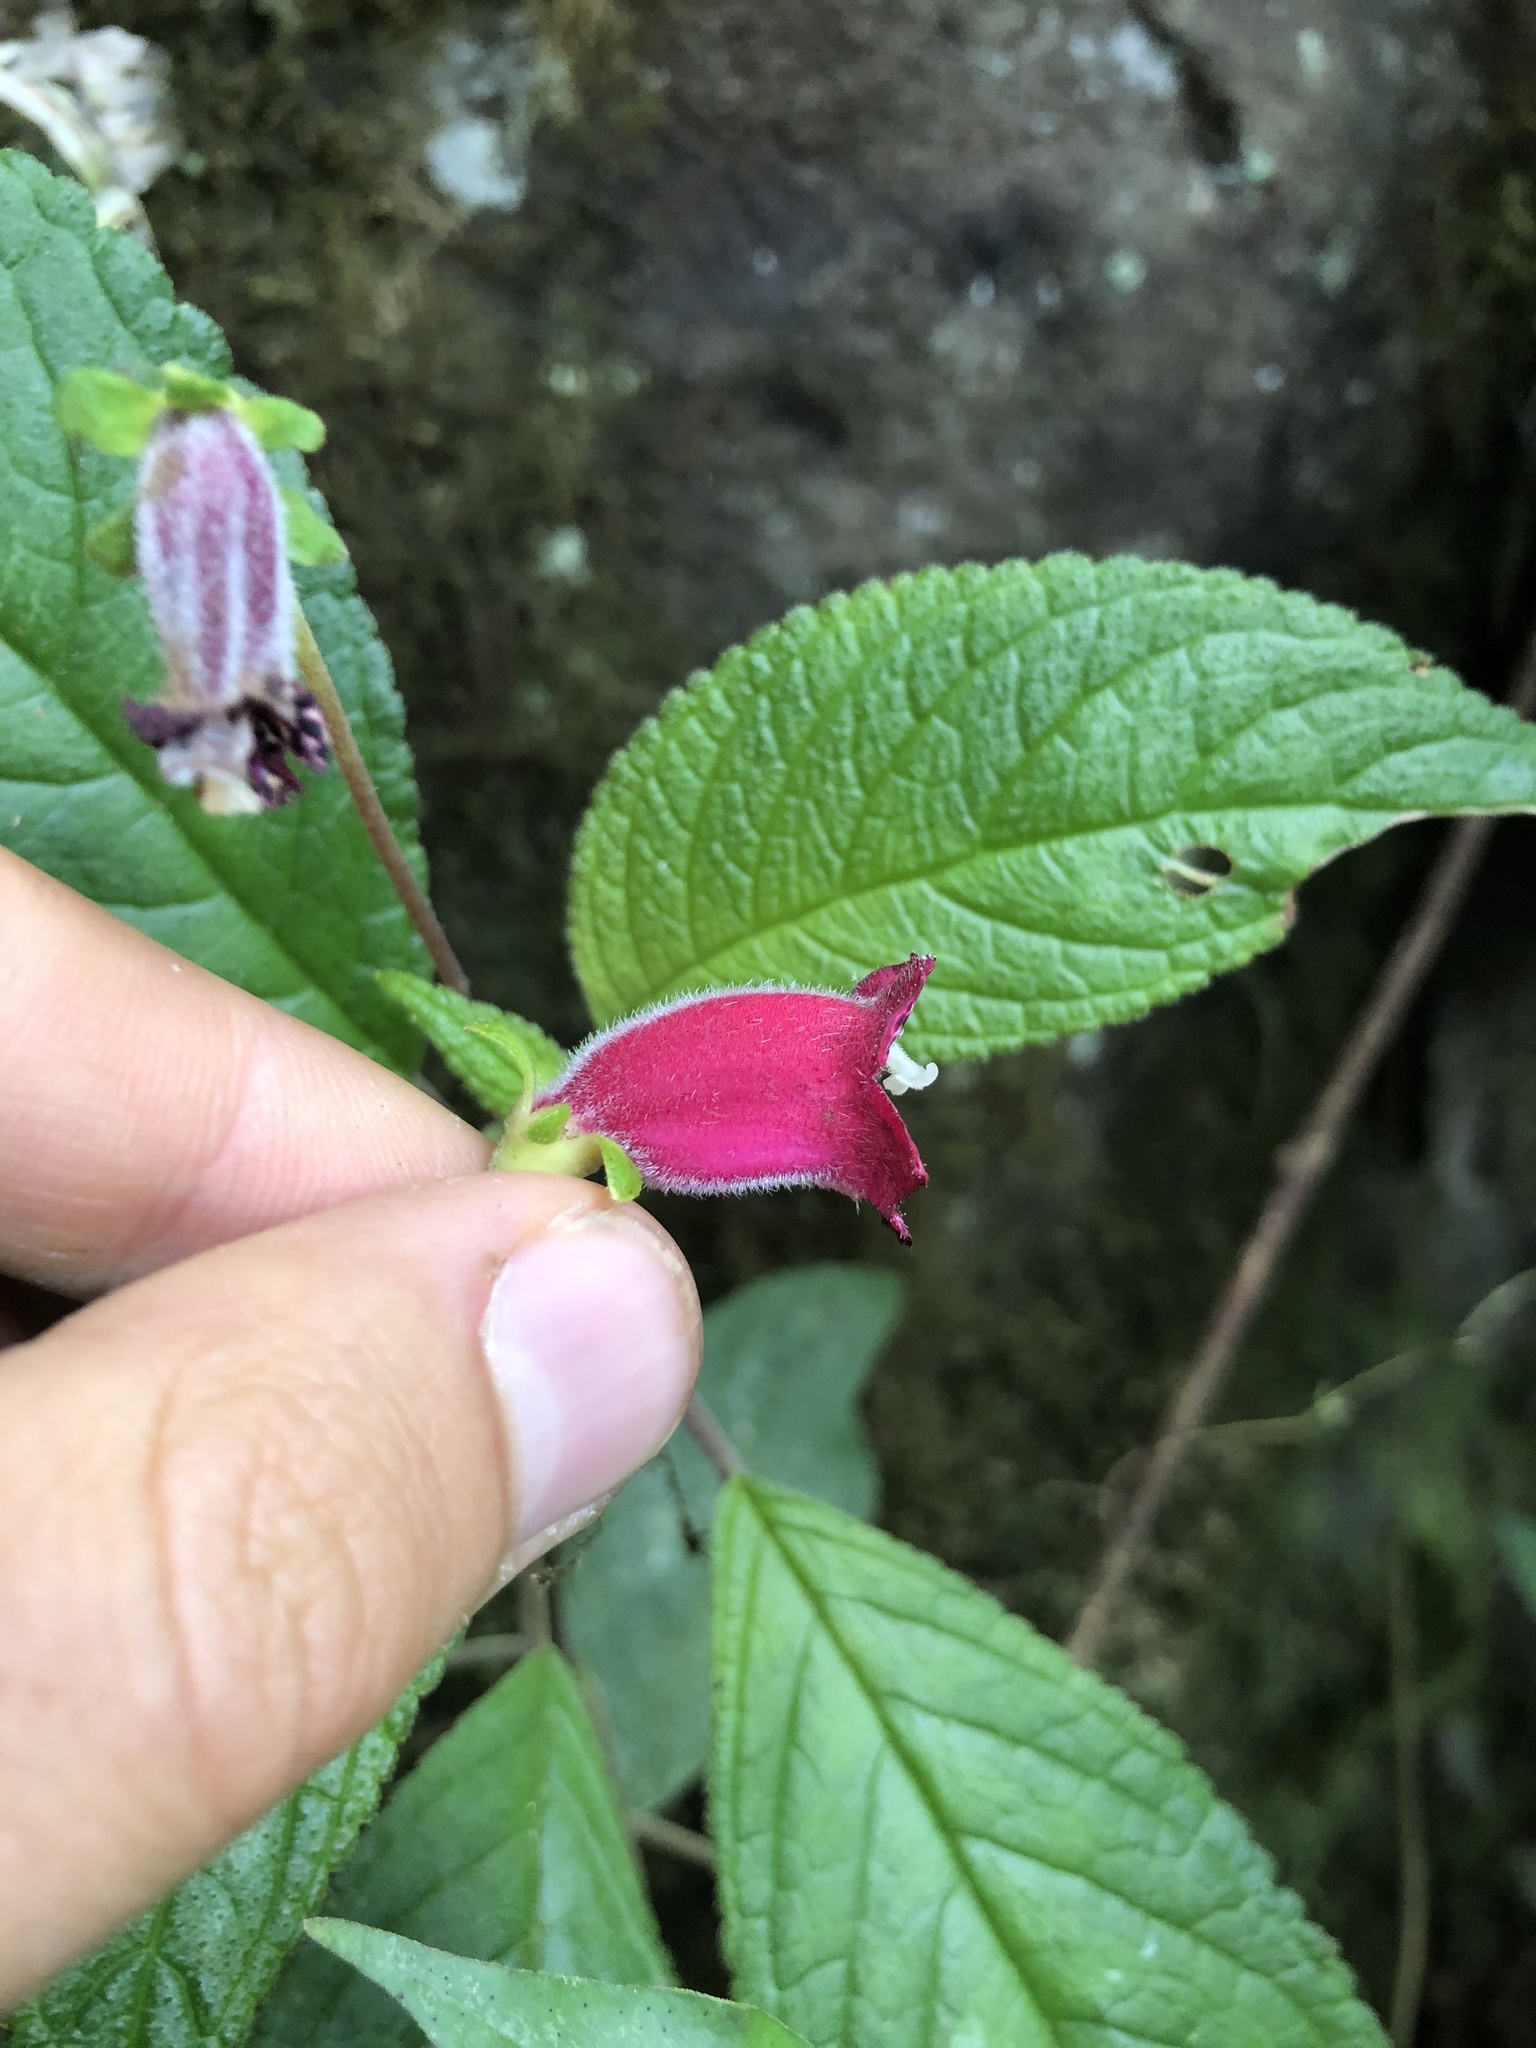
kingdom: Plantae
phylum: Tracheophyta
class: Magnoliopsida
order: Lamiales
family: Gesneriaceae
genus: Kohleria
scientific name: Kohleria inaequalis
